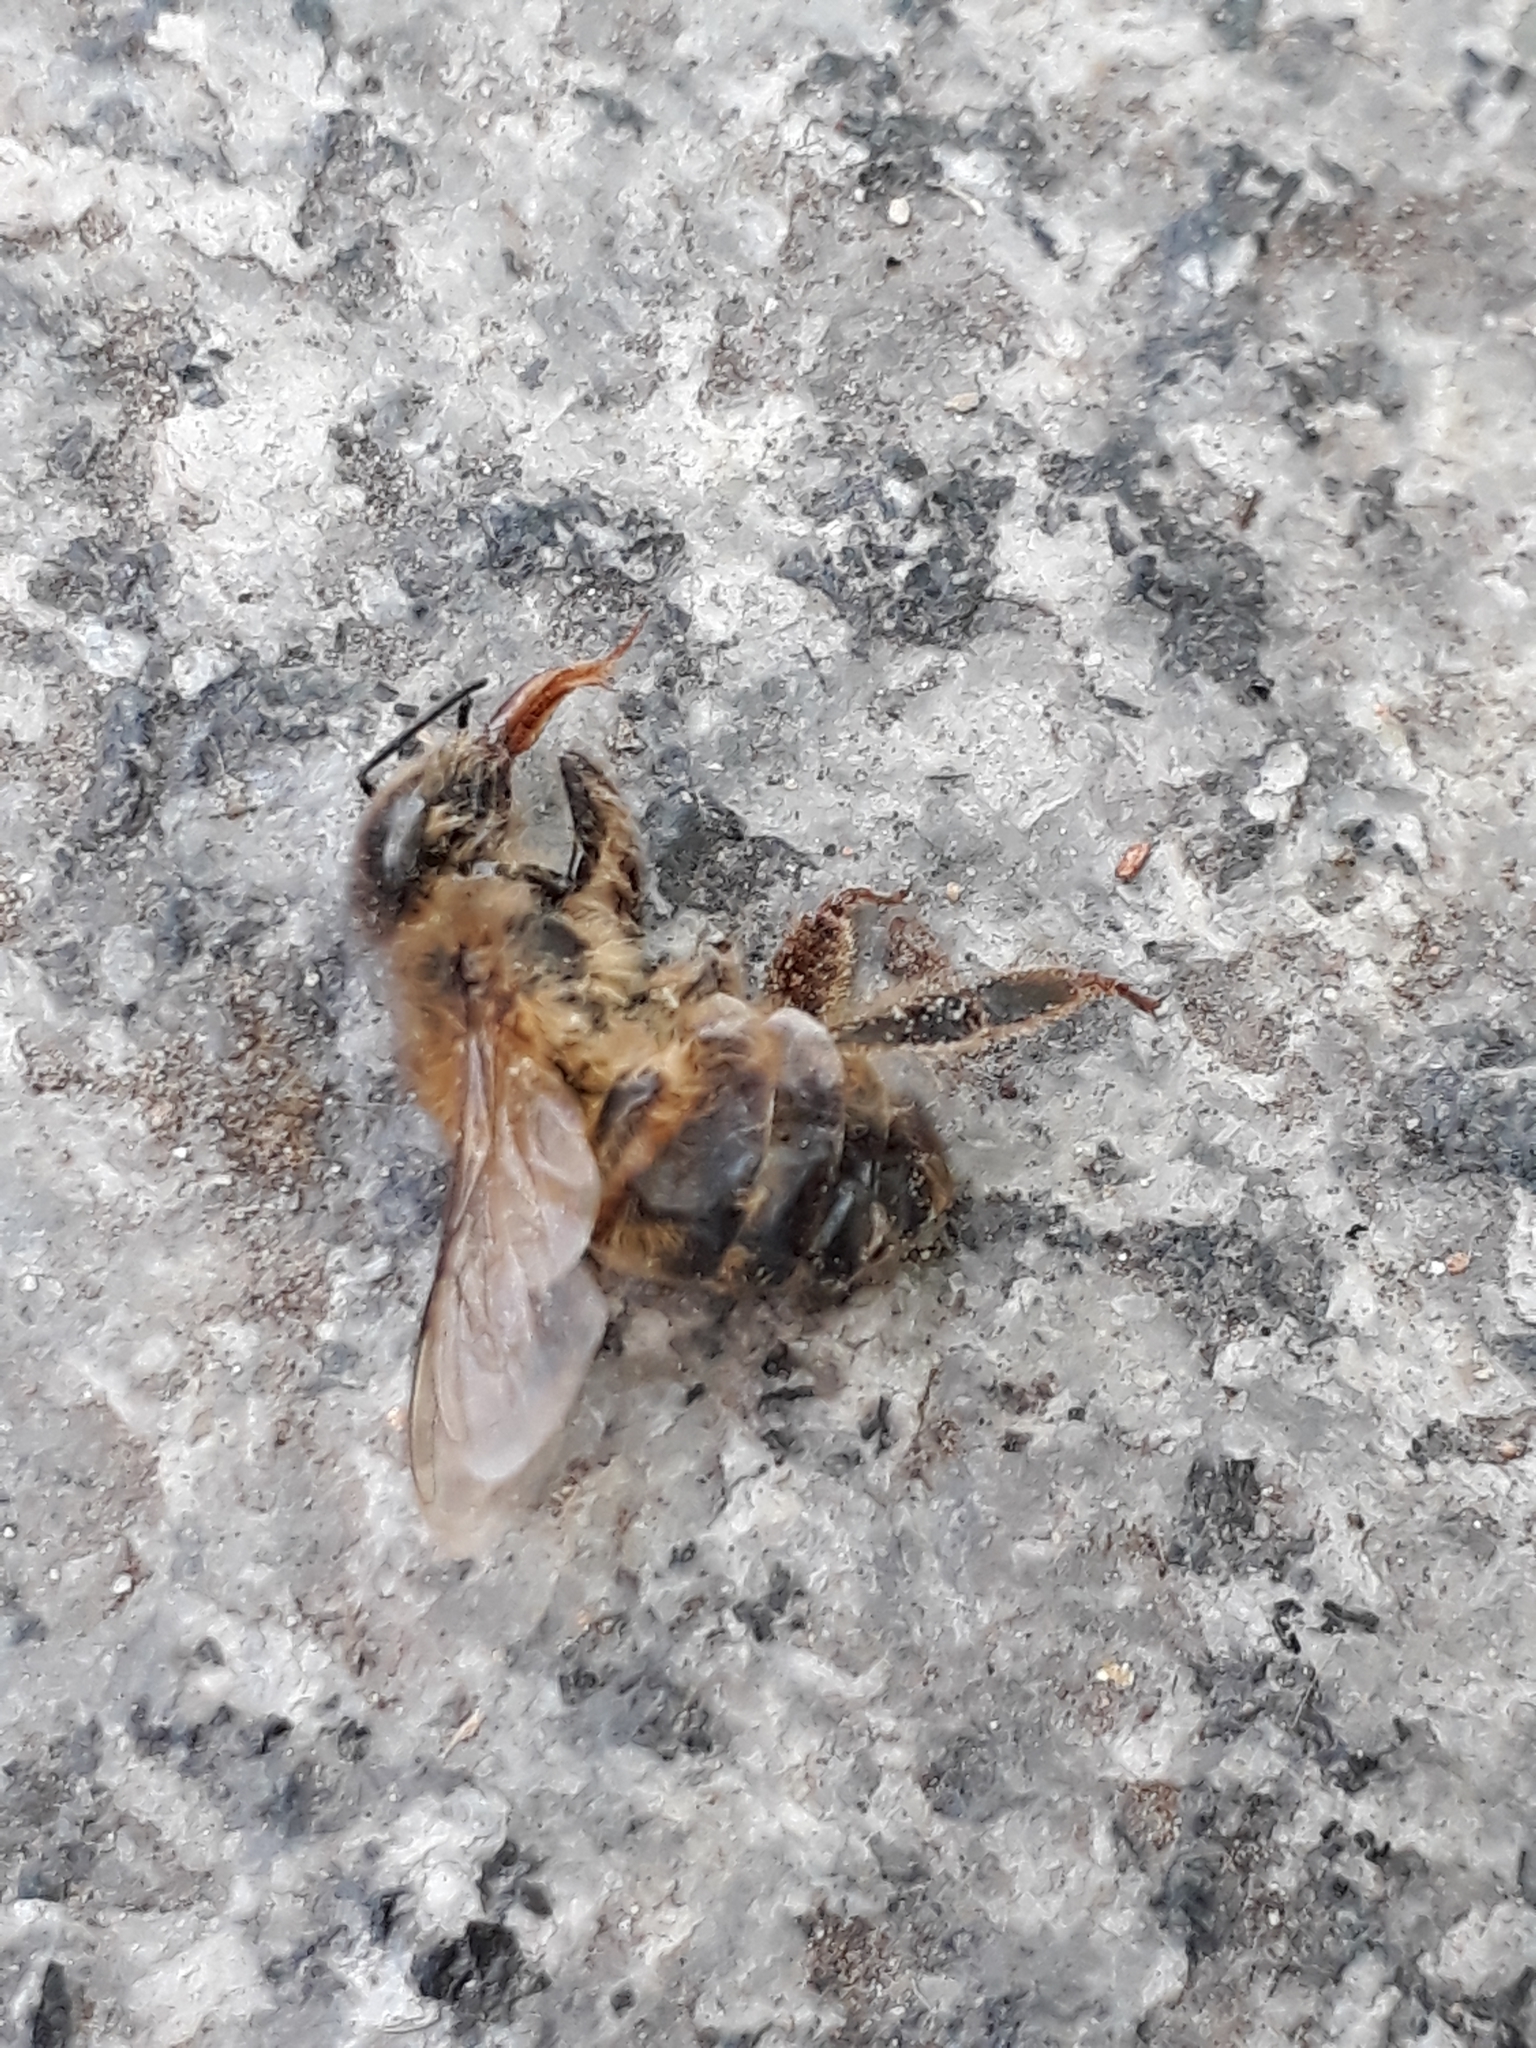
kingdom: Animalia
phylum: Arthropoda
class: Insecta
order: Hymenoptera
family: Apidae
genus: Apis
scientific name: Apis mellifera
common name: Honey bee
